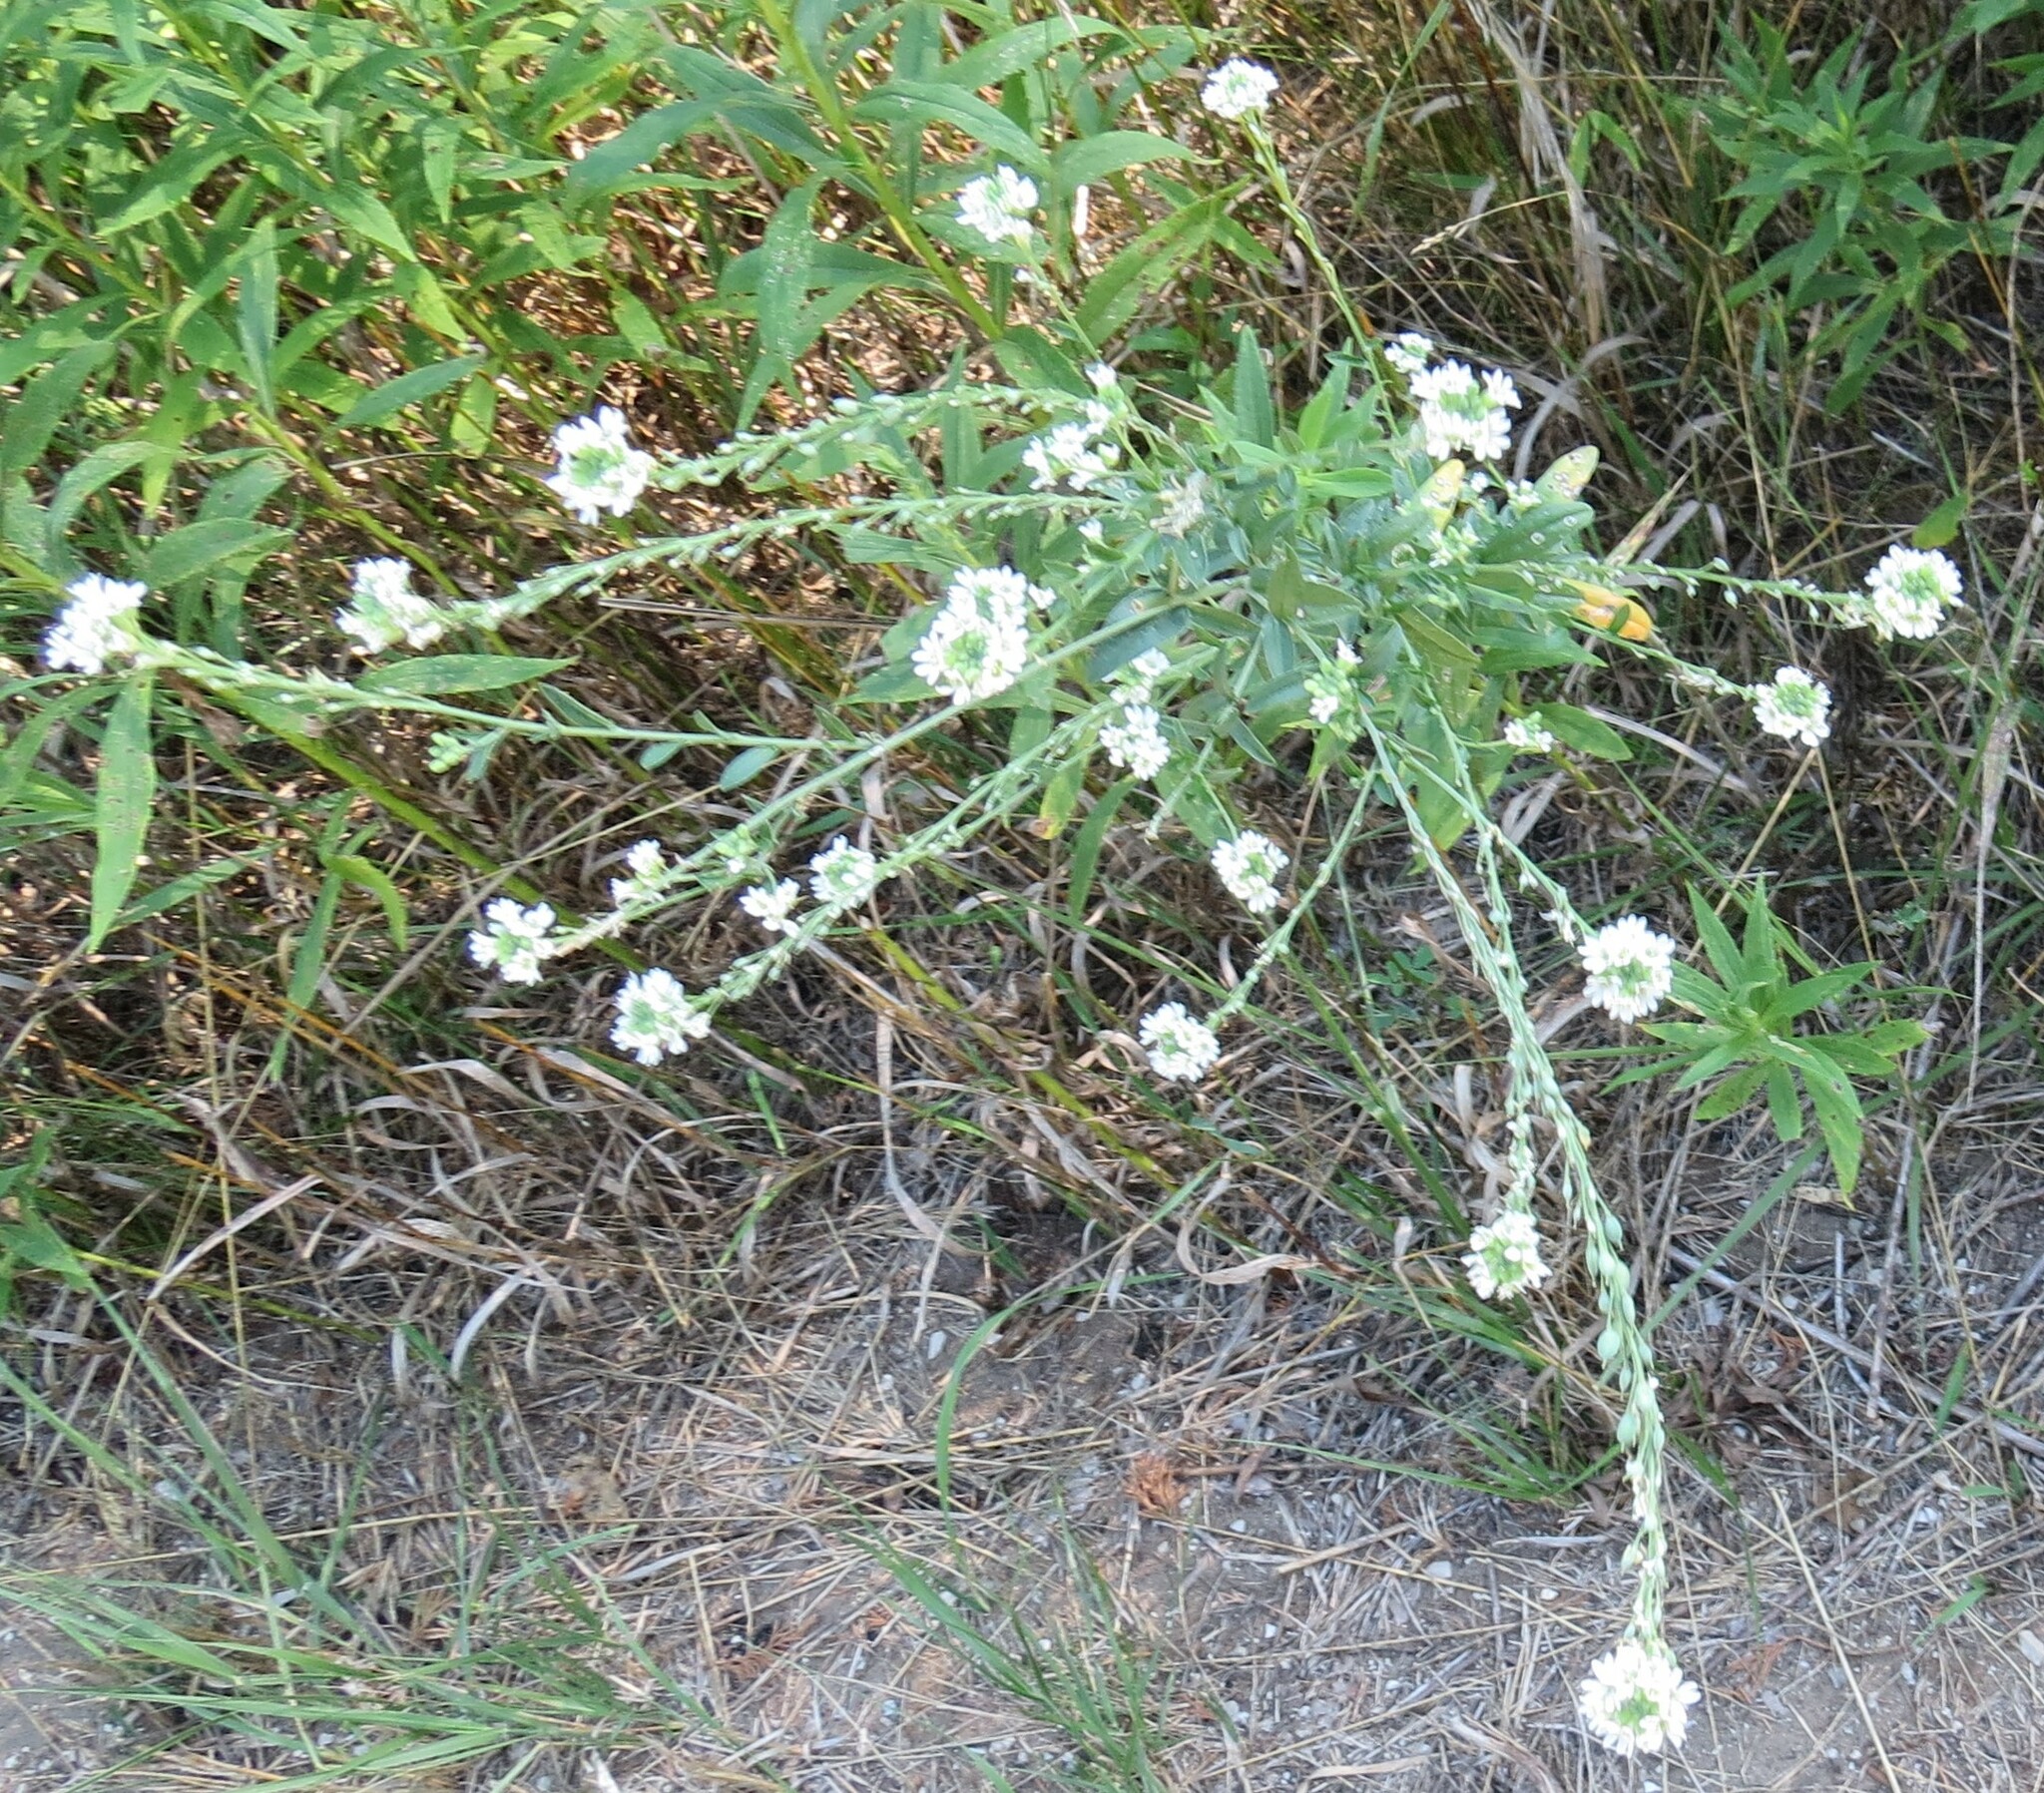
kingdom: Plantae
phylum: Tracheophyta
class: Magnoliopsida
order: Brassicales
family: Brassicaceae
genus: Berteroa
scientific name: Berteroa incana
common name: Hoary alison
